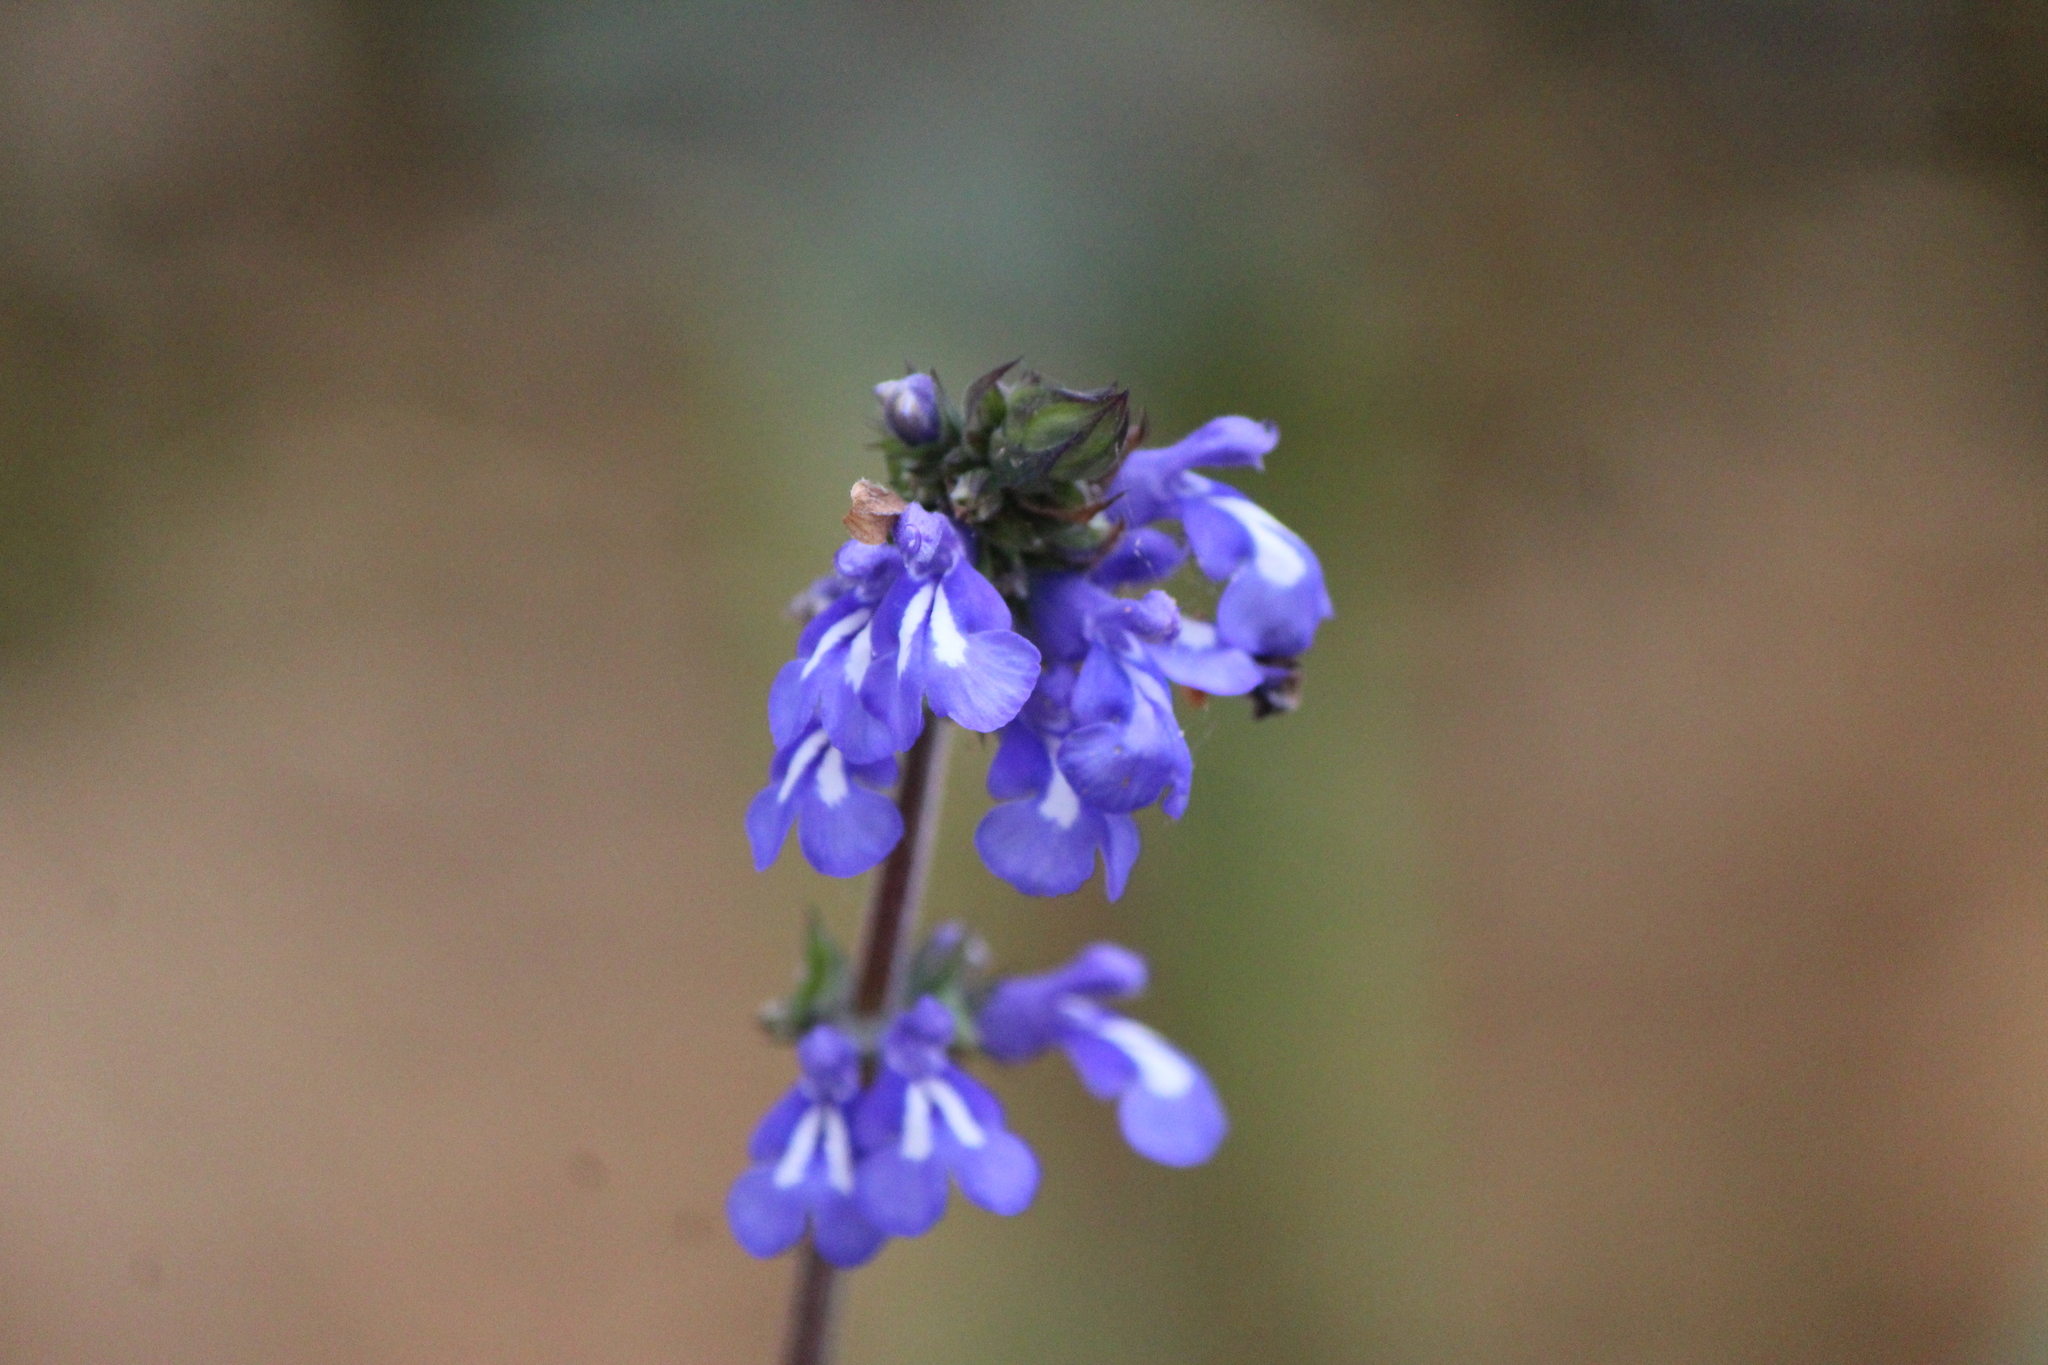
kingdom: Plantae
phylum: Tracheophyta
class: Magnoliopsida
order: Lamiales
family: Lamiaceae
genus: Salvia
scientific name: Salvia prunelloides
